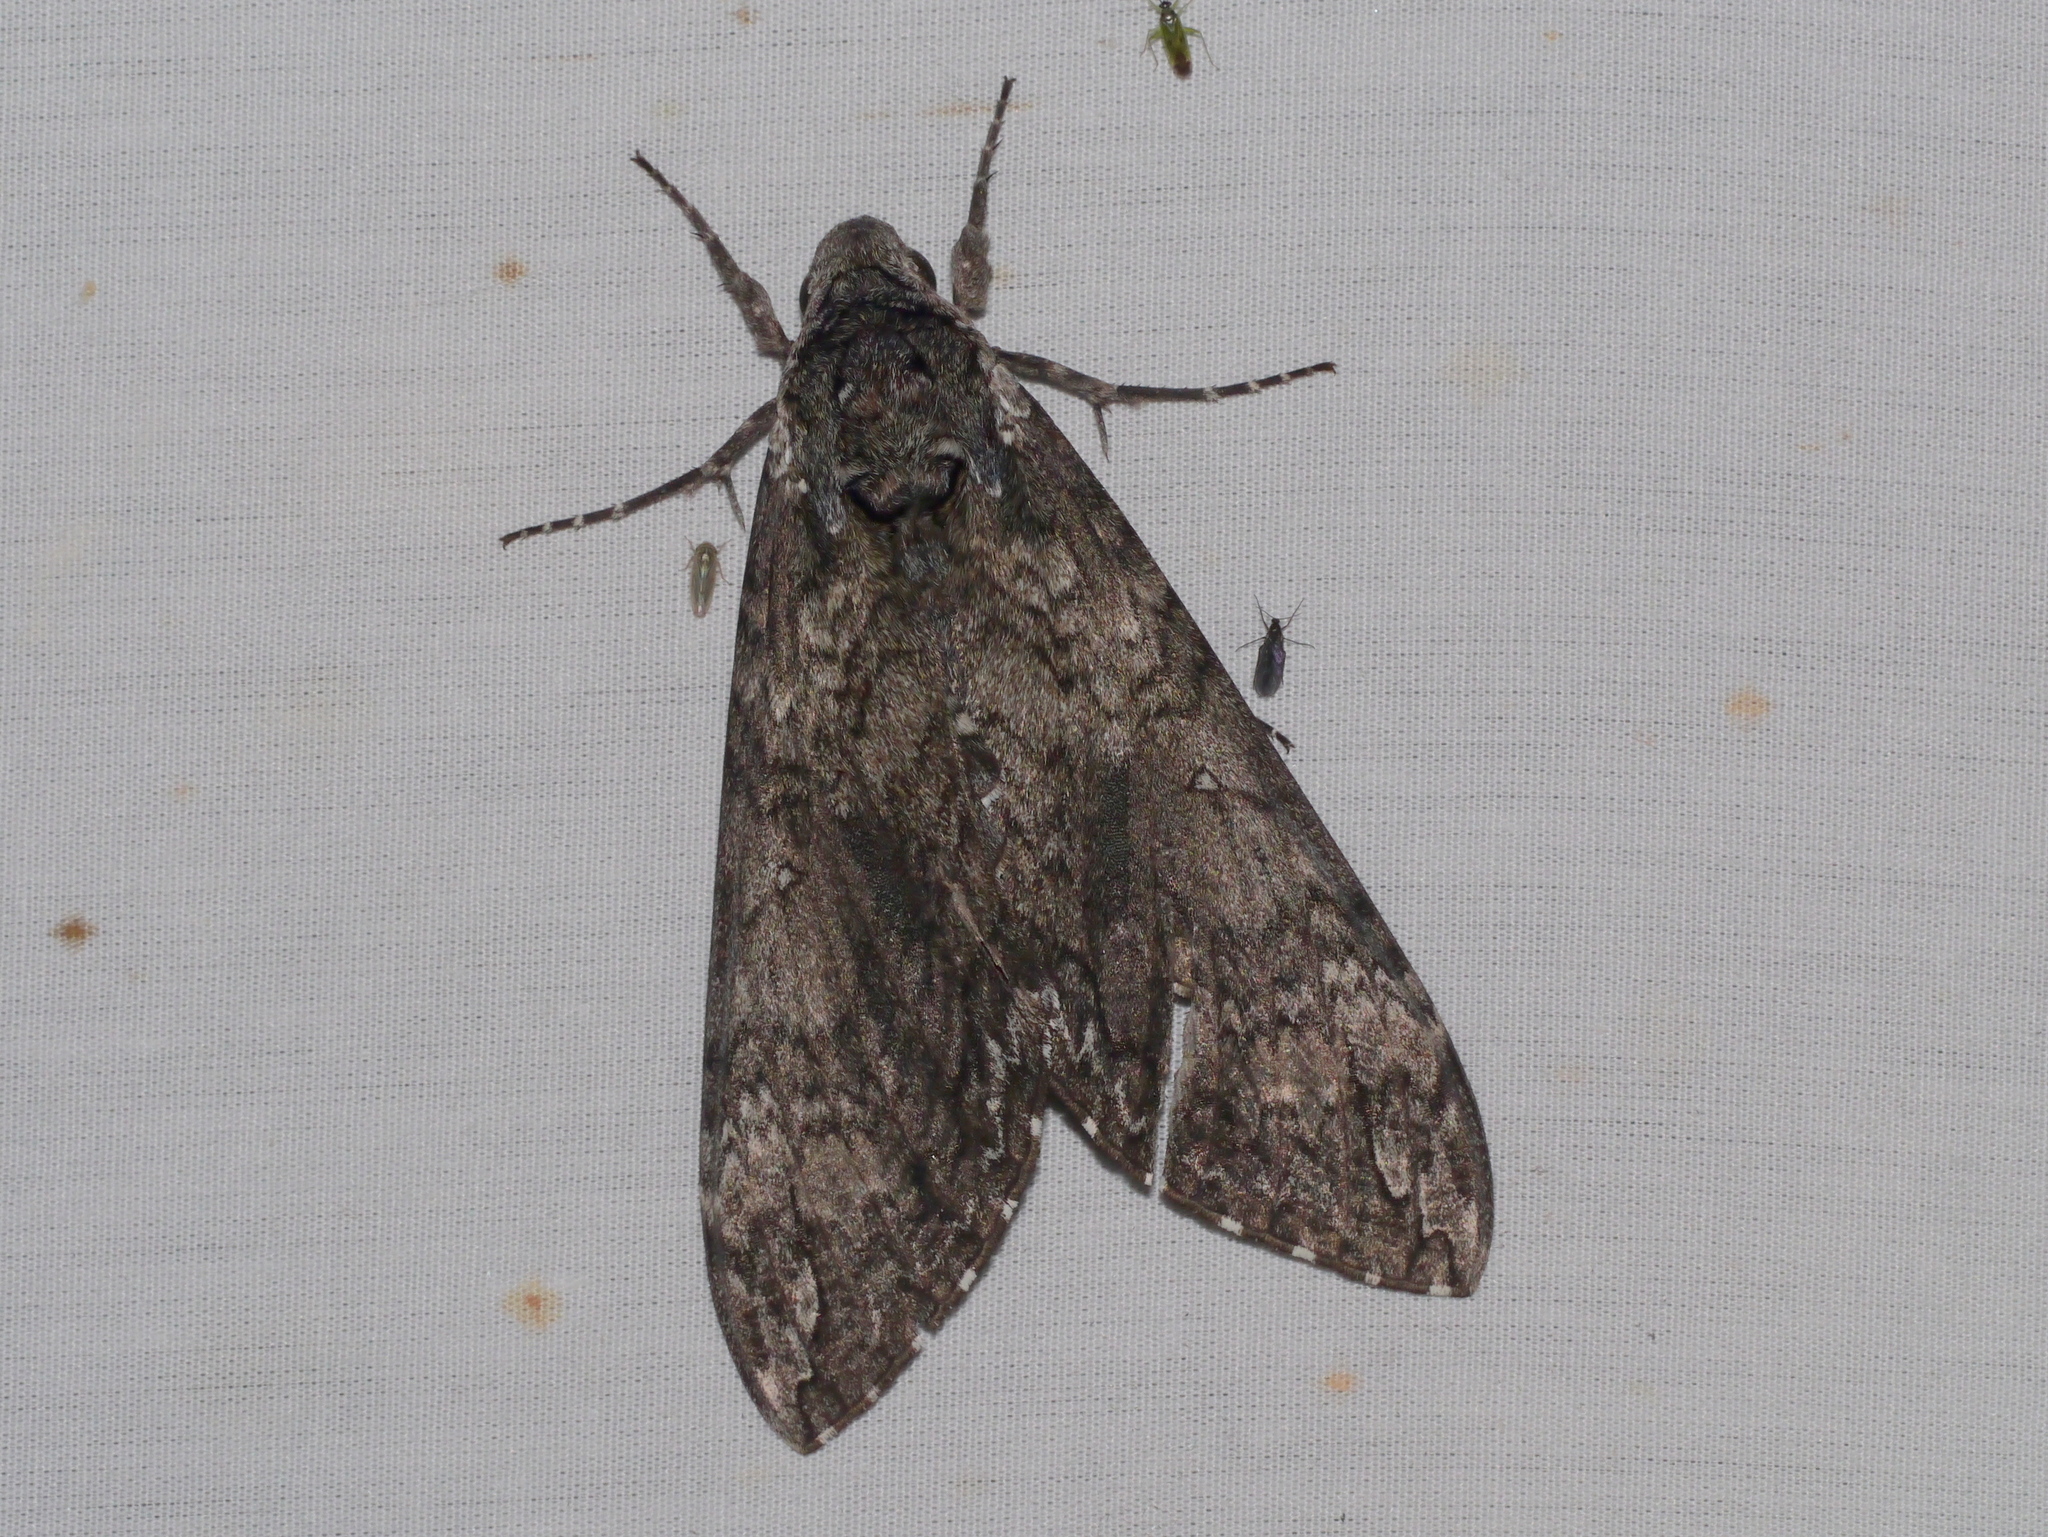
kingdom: Animalia
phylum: Arthropoda
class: Insecta
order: Lepidoptera
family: Sphingidae
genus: Manduca
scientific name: Manduca sexta
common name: Carolina sphinx
